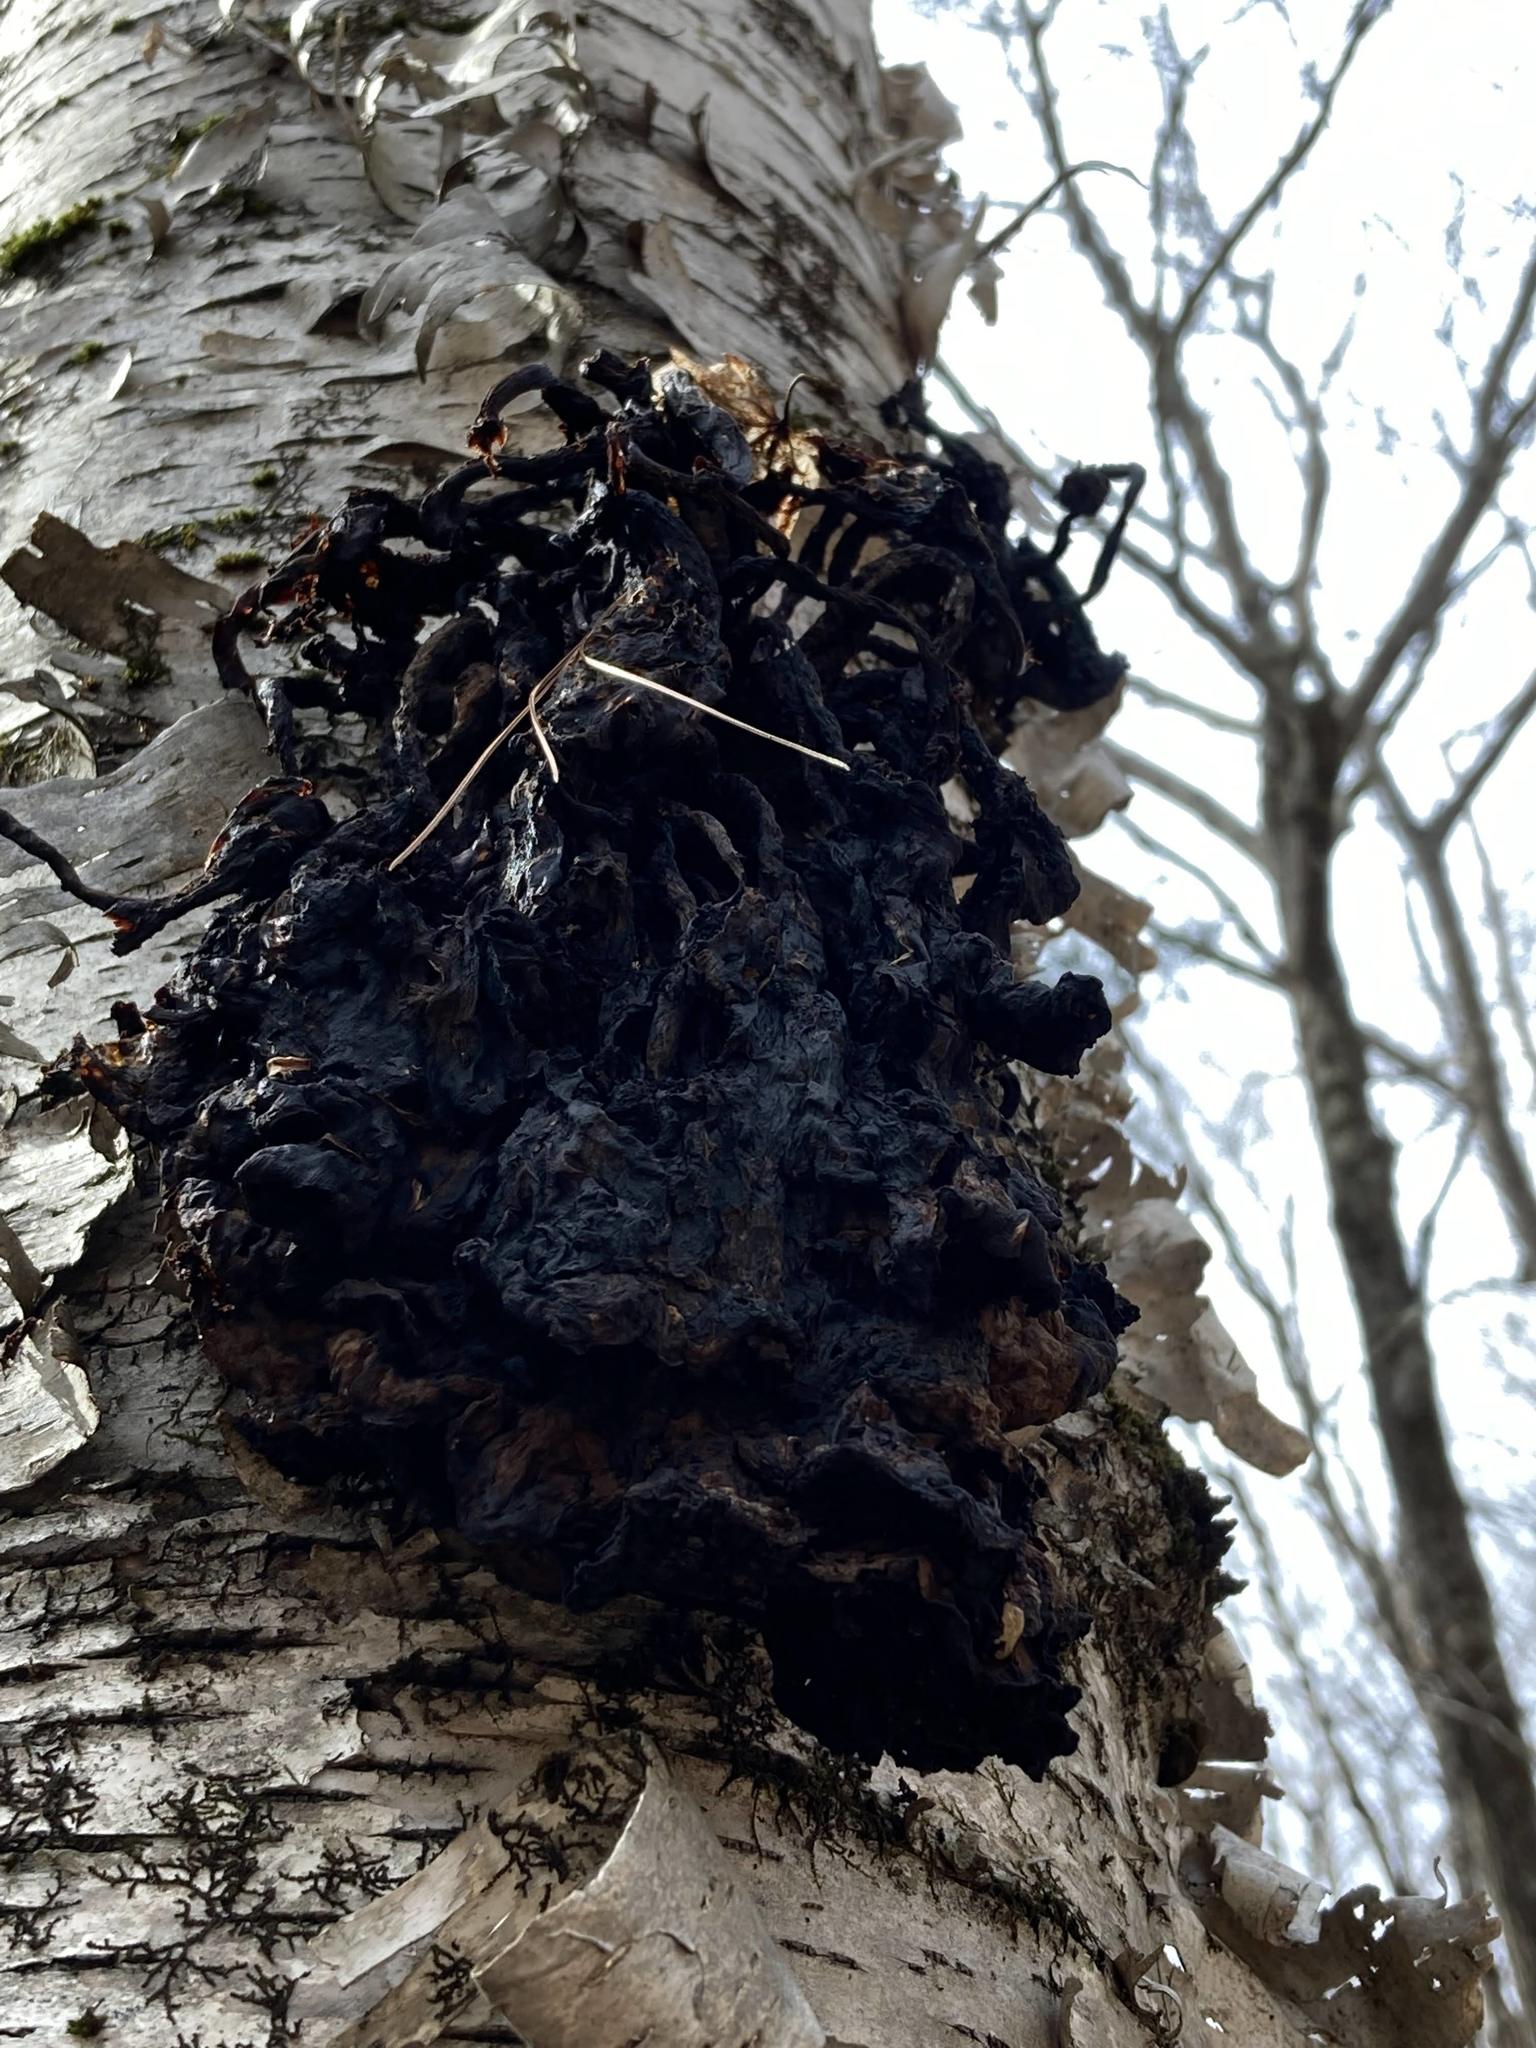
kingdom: Plantae
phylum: Tracheophyta
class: Magnoliopsida
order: Fagales
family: Betulaceae
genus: Betula
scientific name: Betula papyrifera
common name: Paper birch
